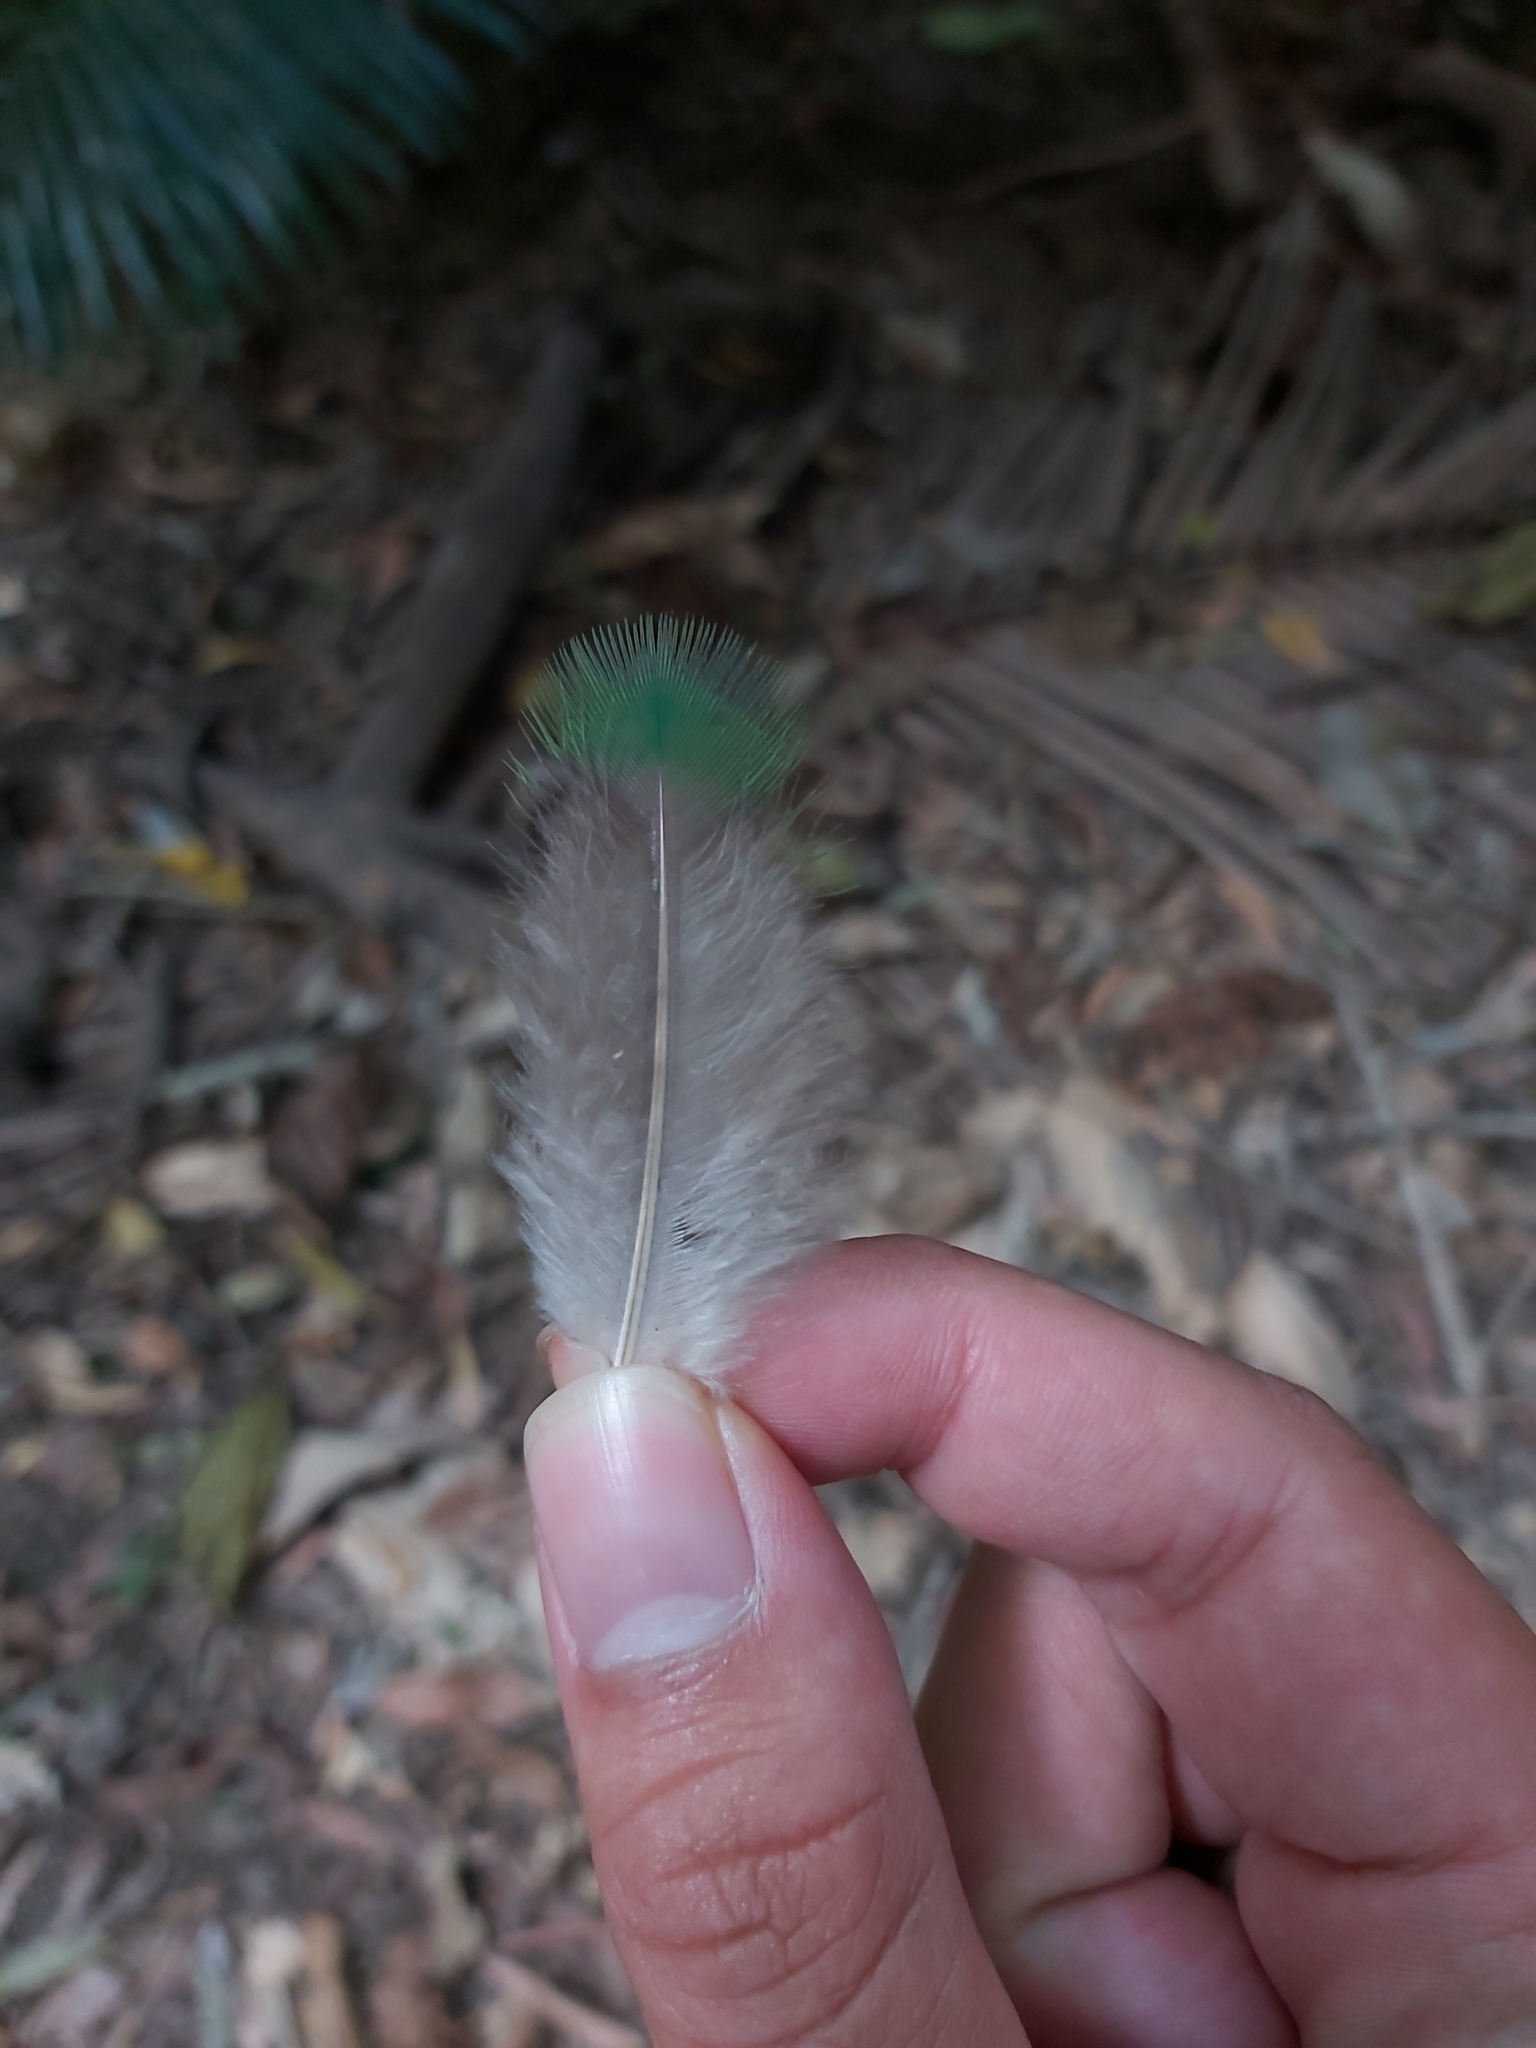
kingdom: Animalia
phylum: Chordata
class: Aves
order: Columbiformes
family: Columbidae
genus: Ptilinopus
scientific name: Ptilinopus magnificus
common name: Wompoo fruit dove
